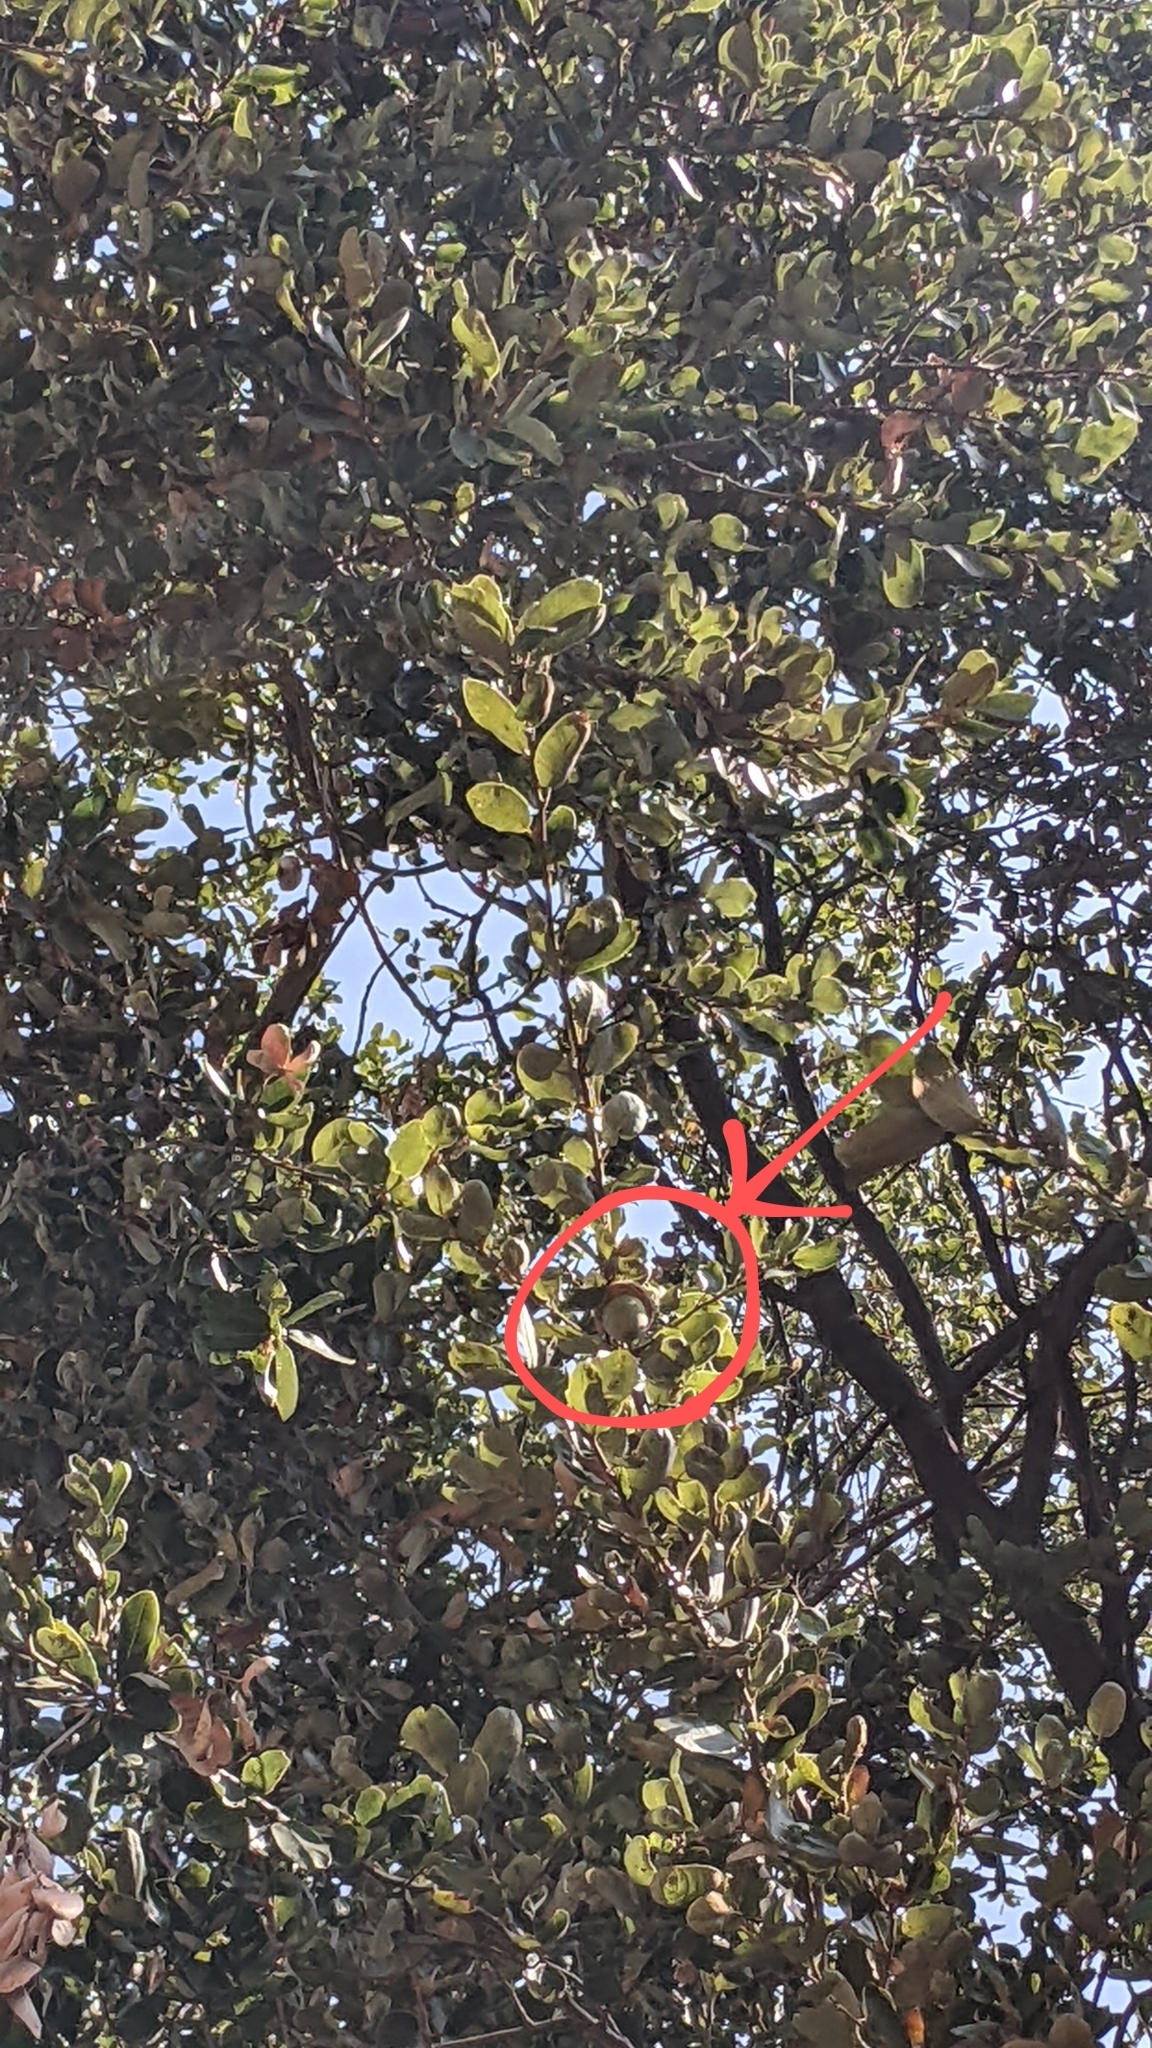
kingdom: Plantae
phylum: Tracheophyta
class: Magnoliopsida
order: Fagales
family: Fagaceae
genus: Quercus
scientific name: Quercus chrysolepis
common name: Canyon live oak
